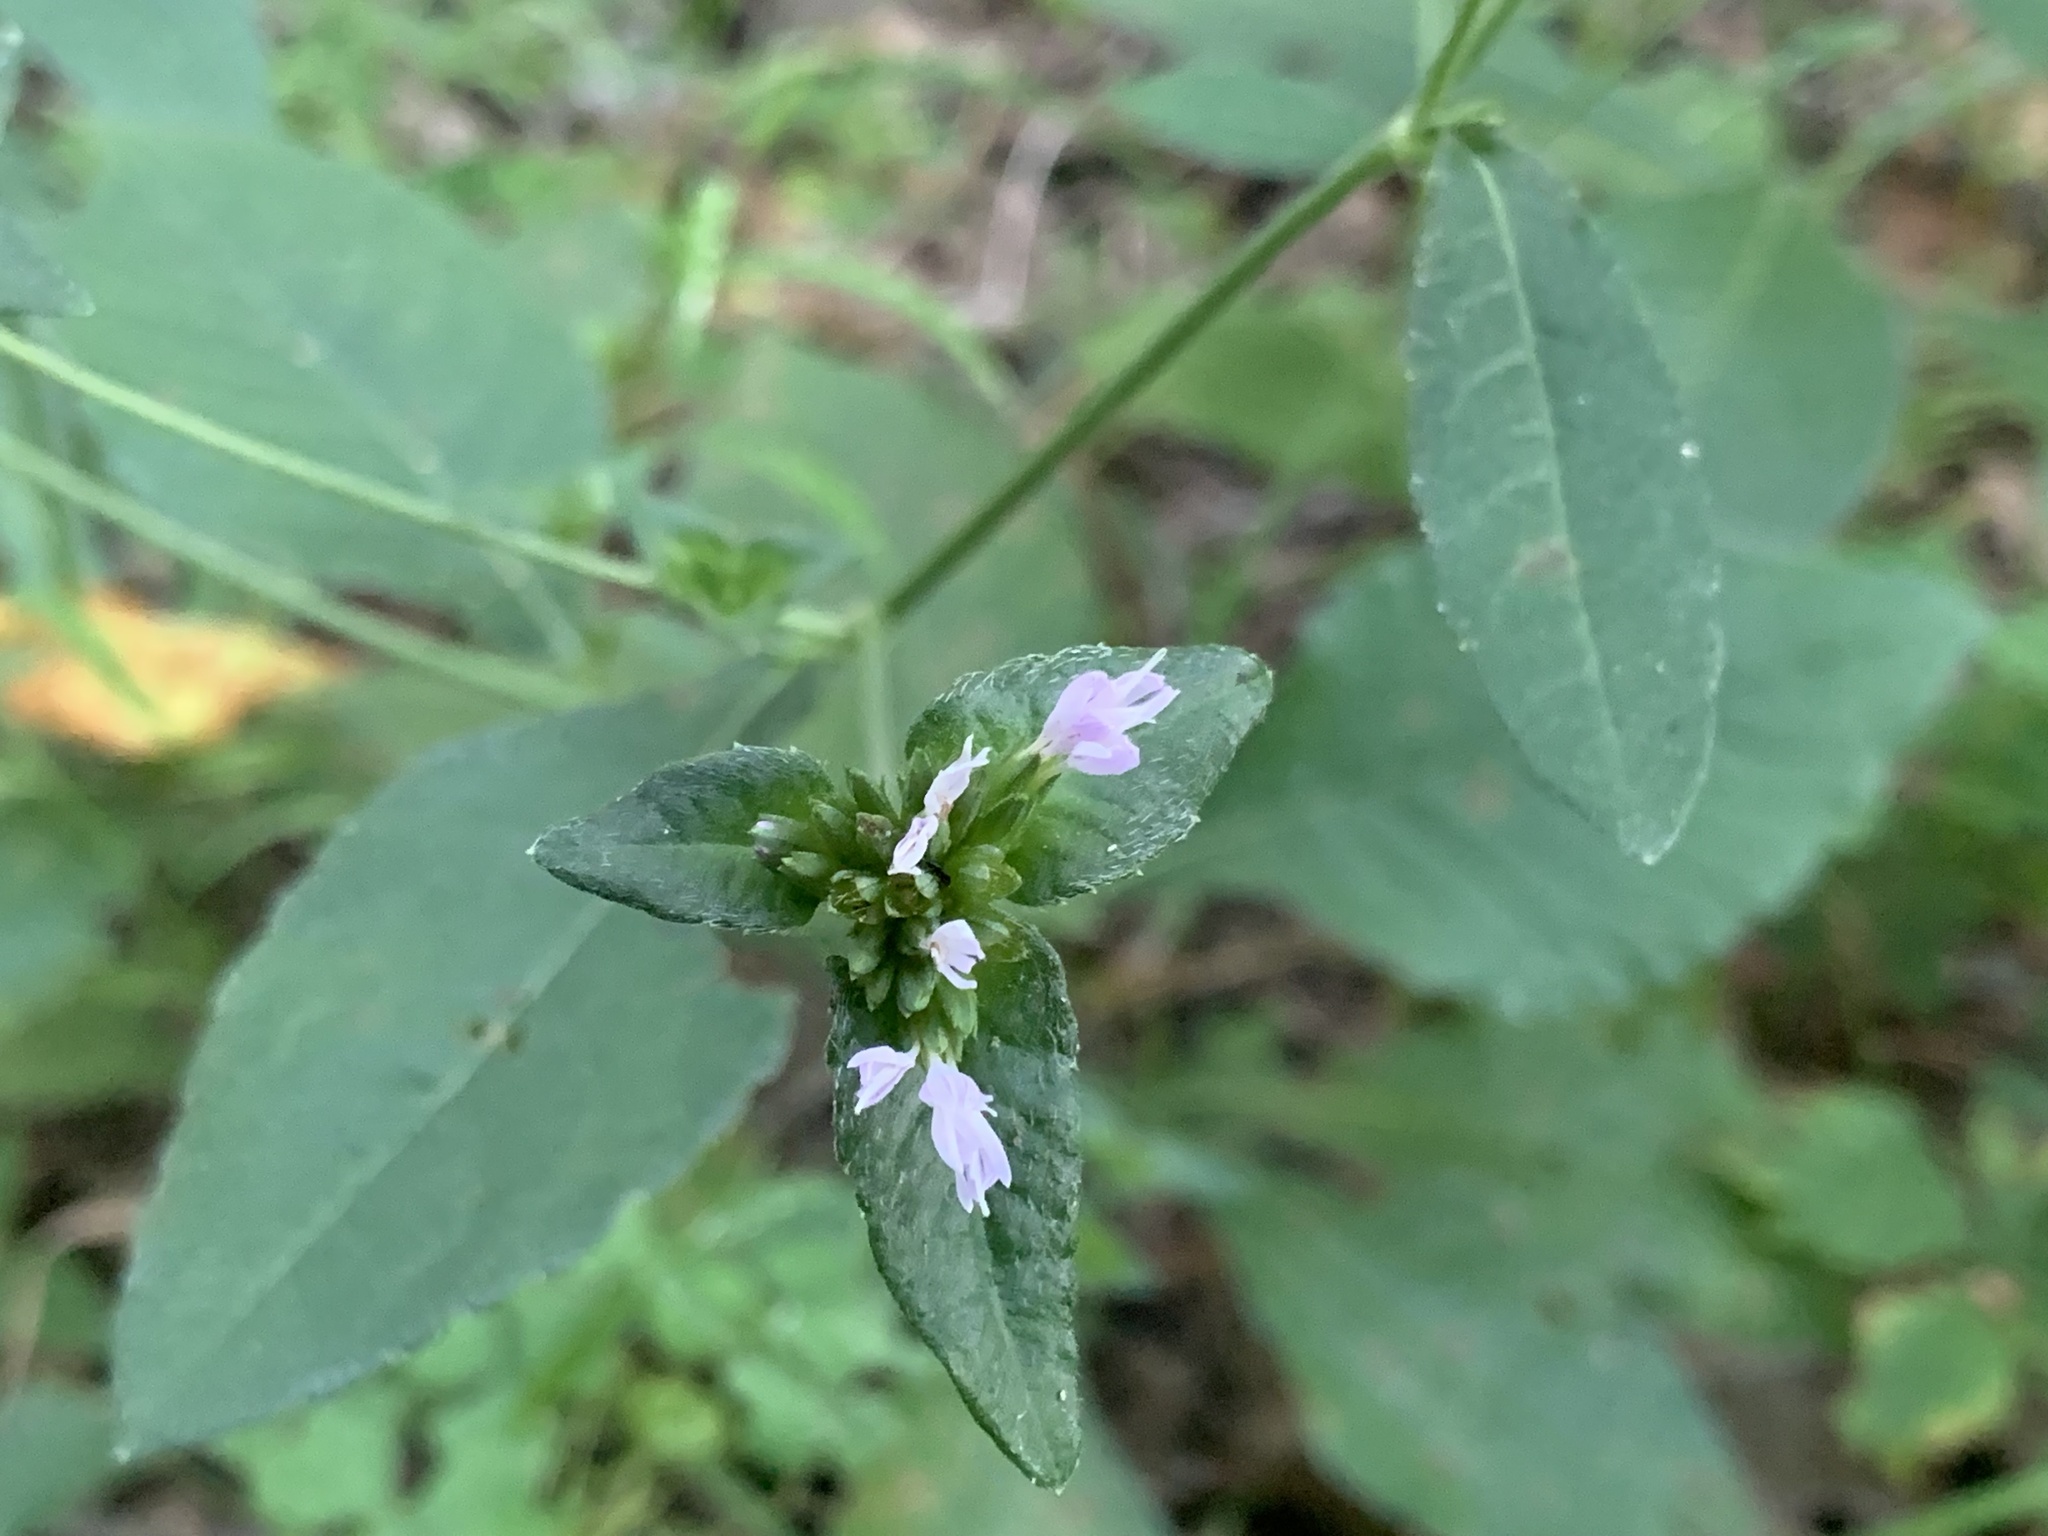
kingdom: Plantae
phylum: Tracheophyta
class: Magnoliopsida
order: Asterales
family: Asteraceae
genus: Elephantopus
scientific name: Elephantopus carolinianus
